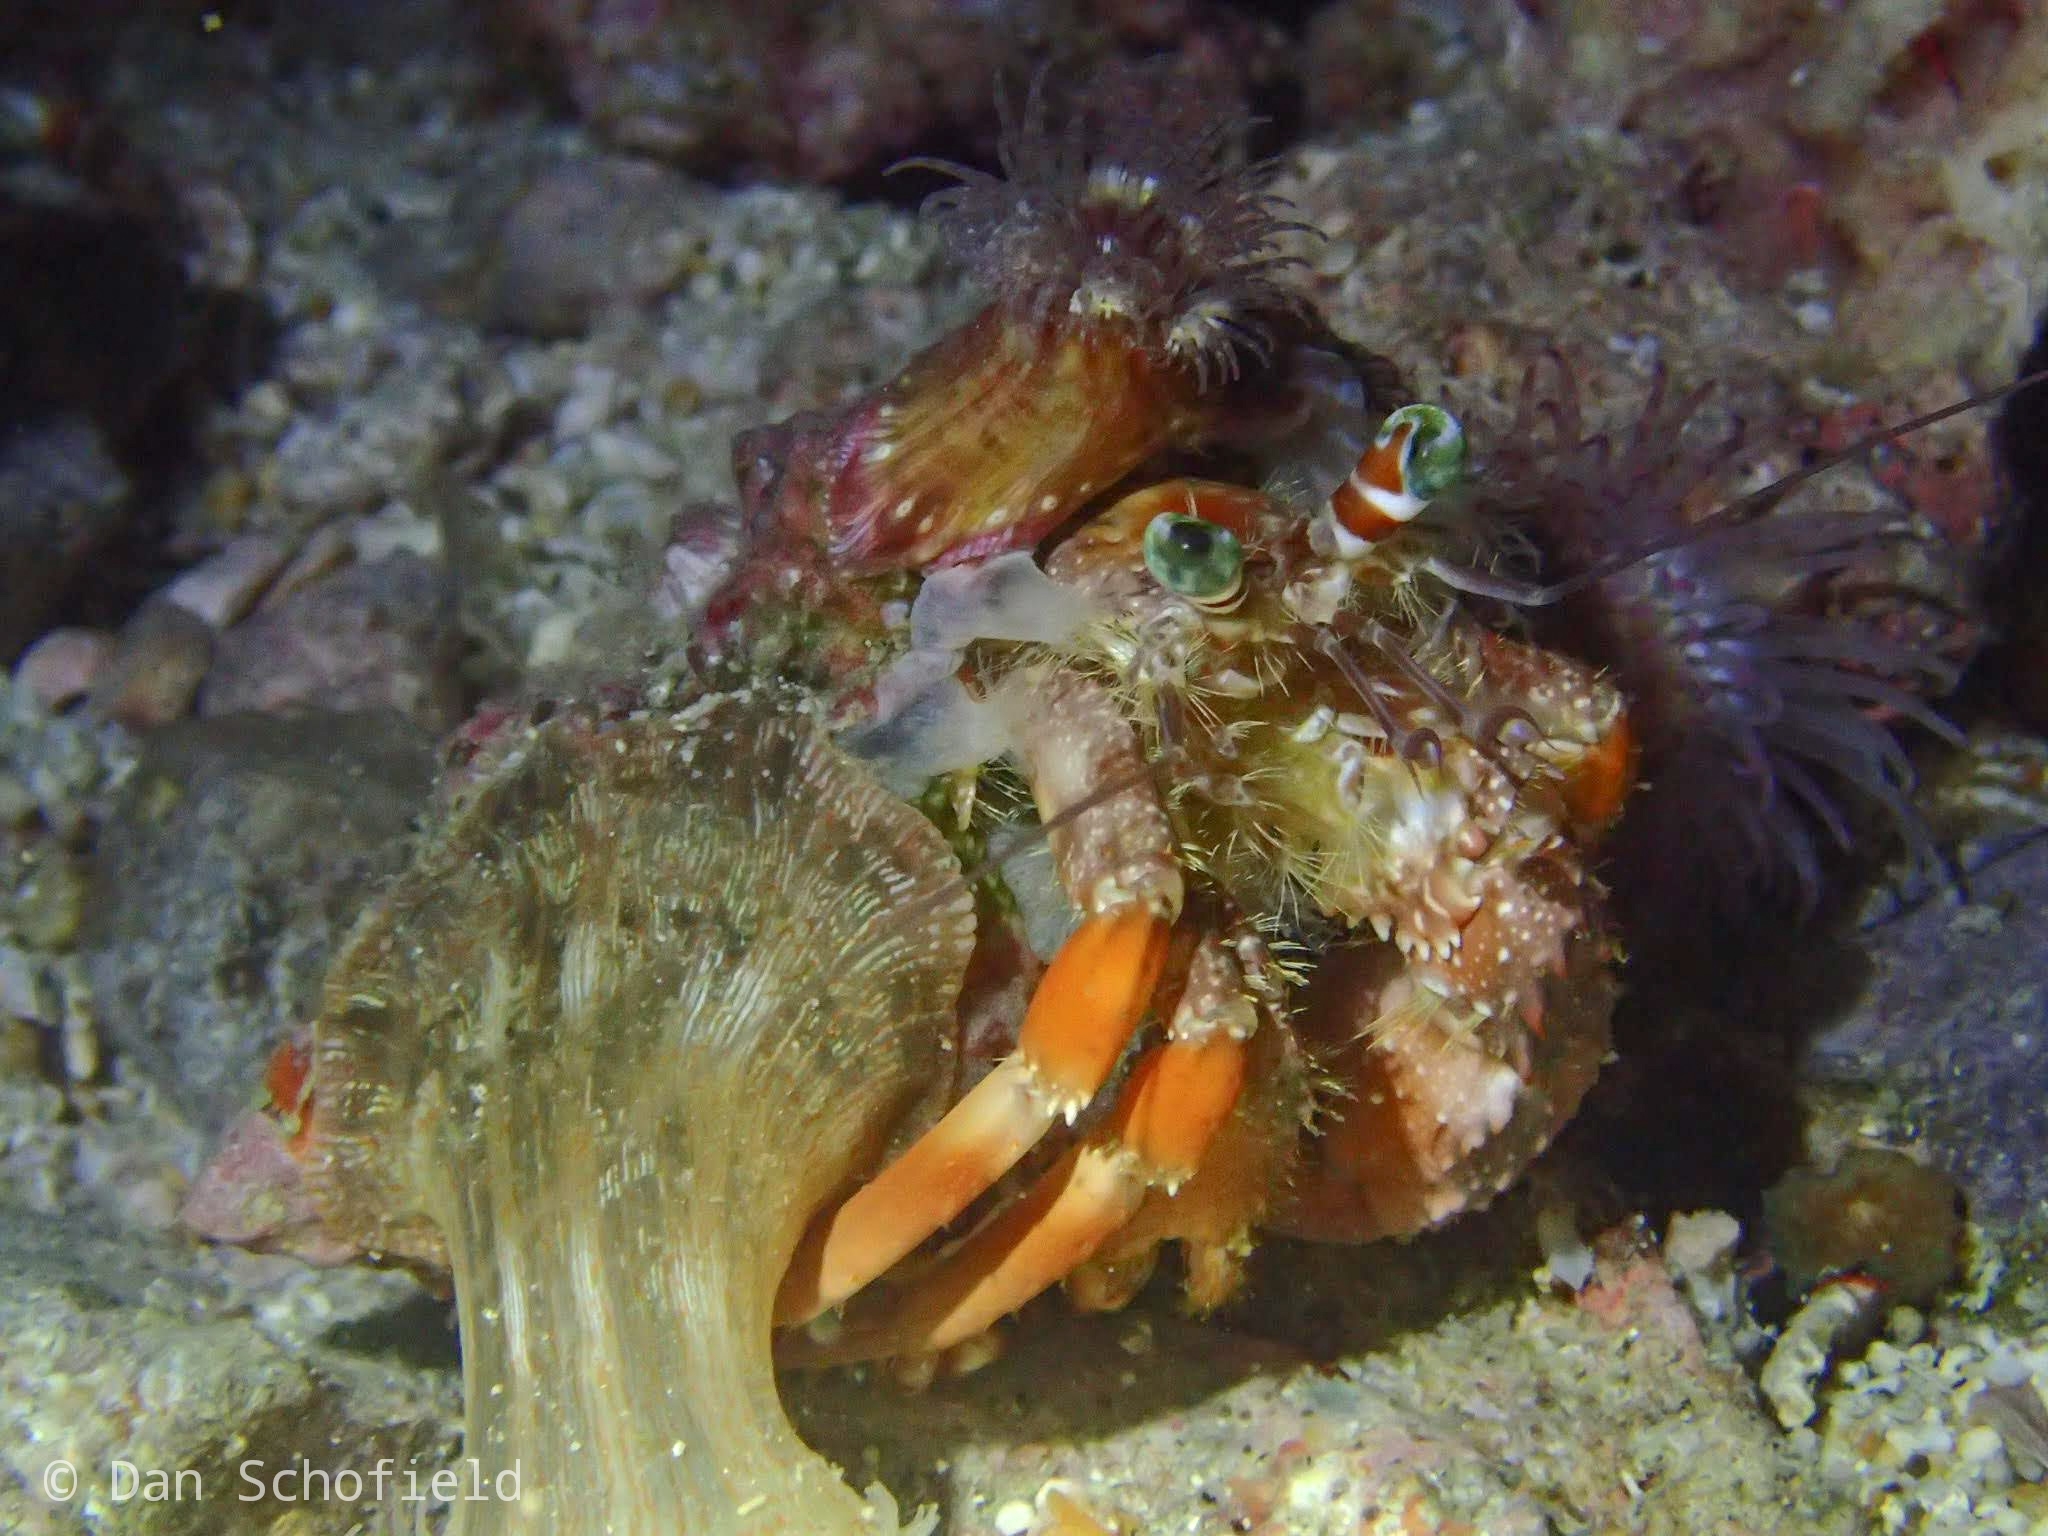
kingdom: Animalia
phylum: Arthropoda
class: Malacostraca
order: Decapoda
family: Diogenidae
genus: Dardanus
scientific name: Dardanus pedunculatus
